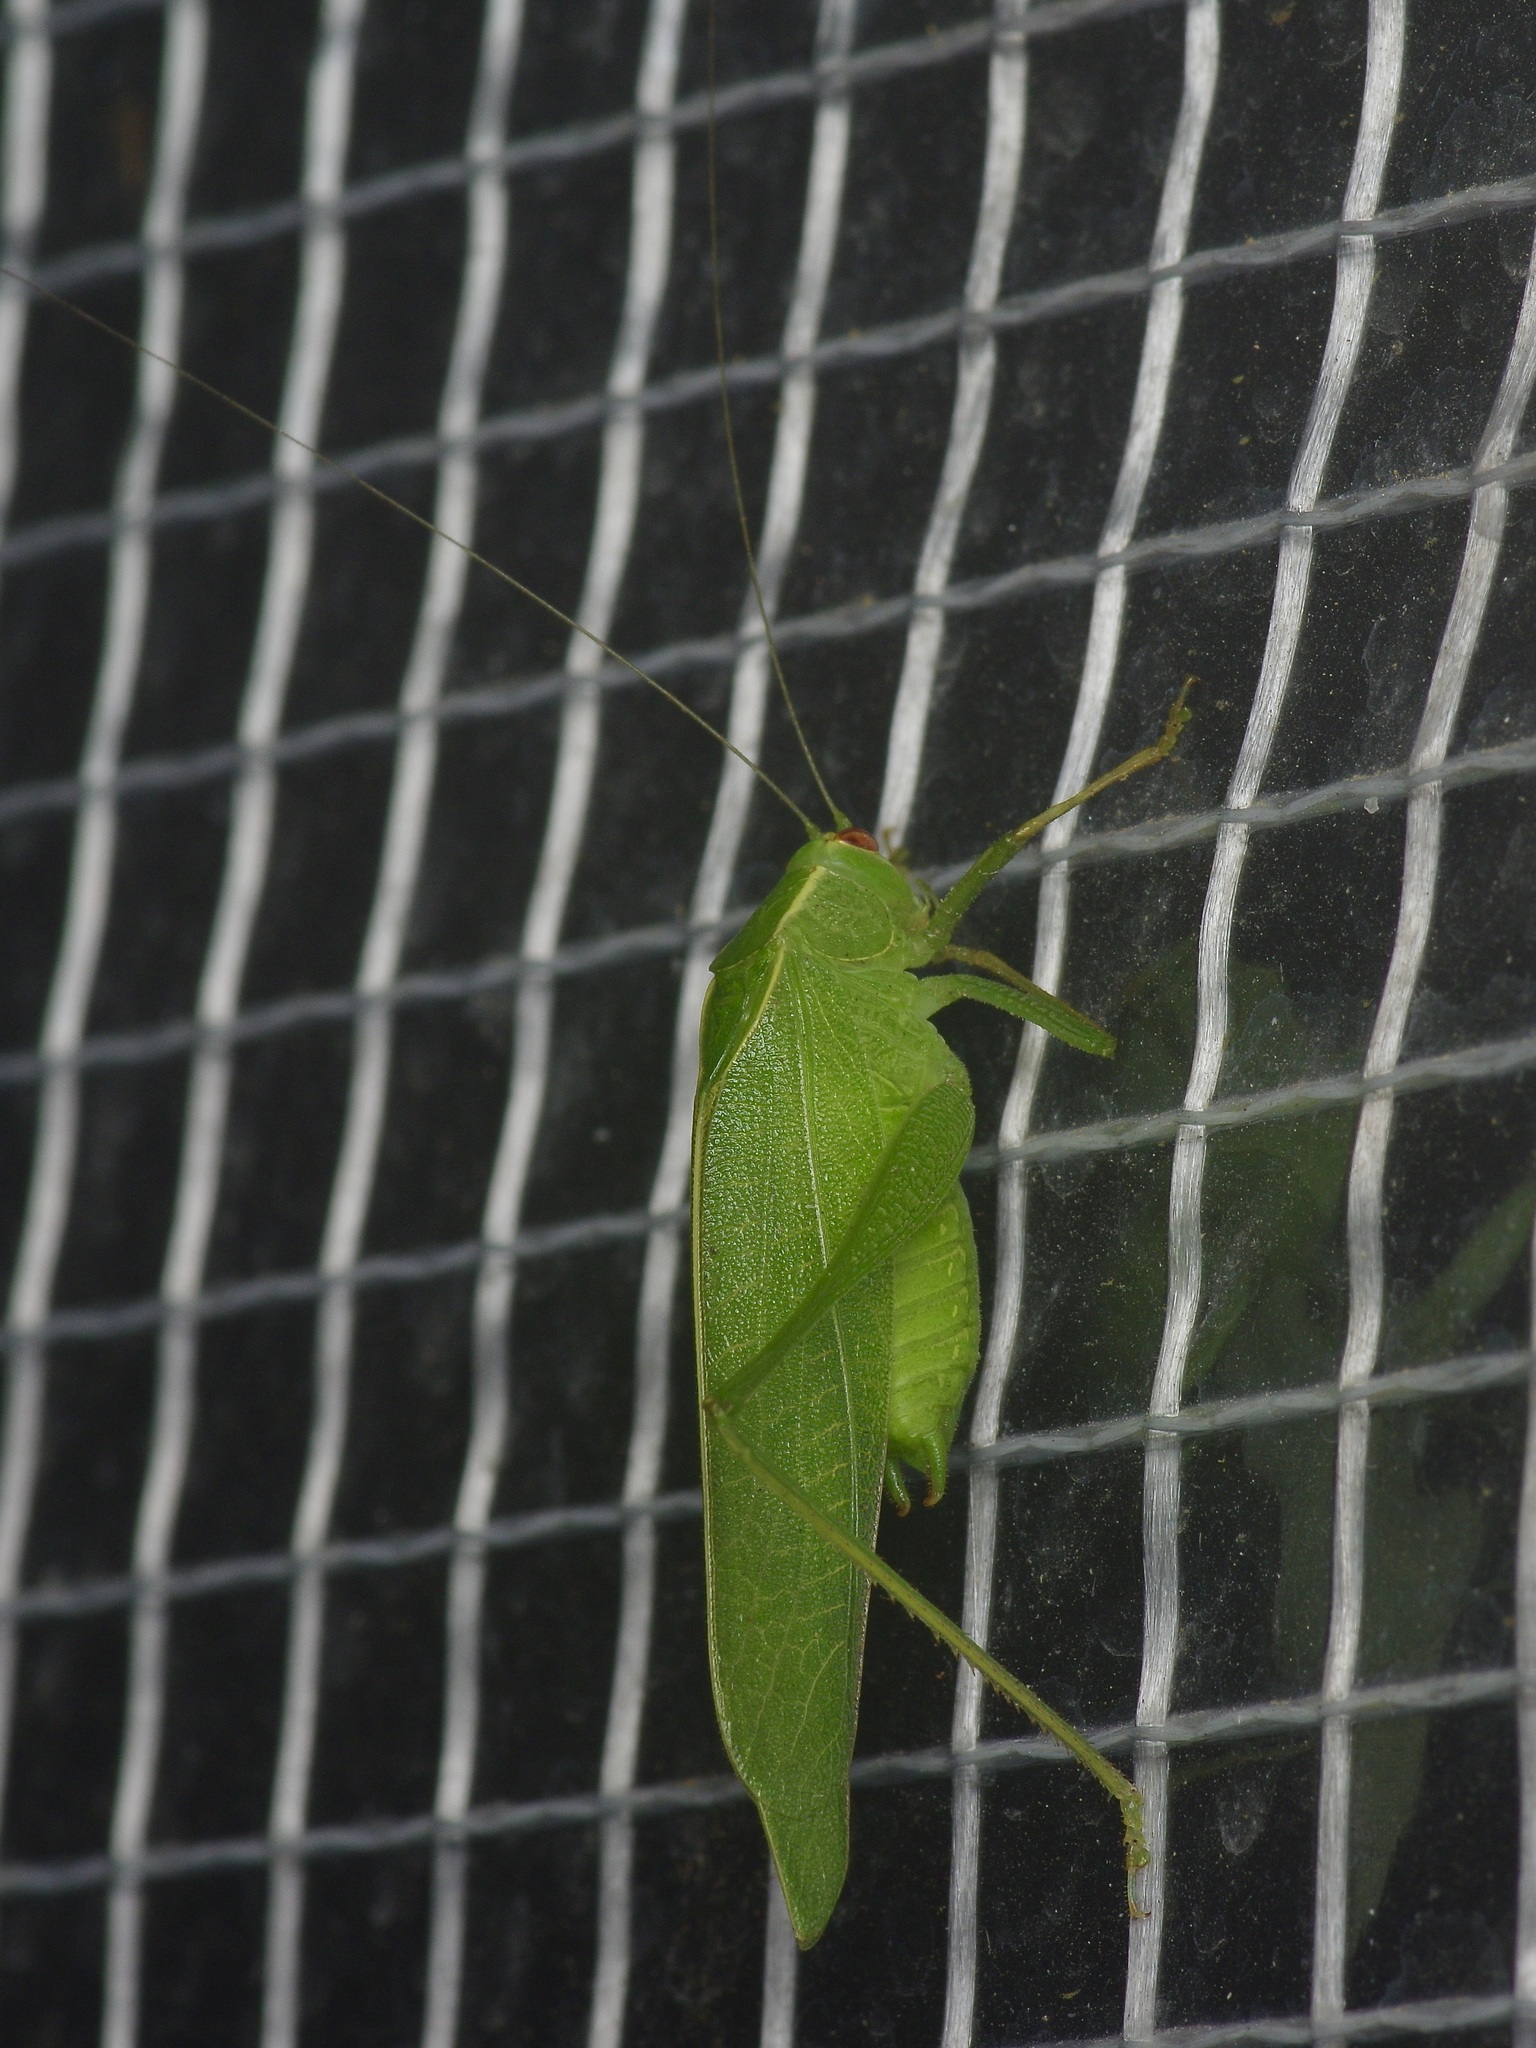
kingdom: Animalia
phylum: Arthropoda
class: Insecta
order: Orthoptera
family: Tettigoniidae
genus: Montezumina
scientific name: Montezumina modesta
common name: Modest katydid
